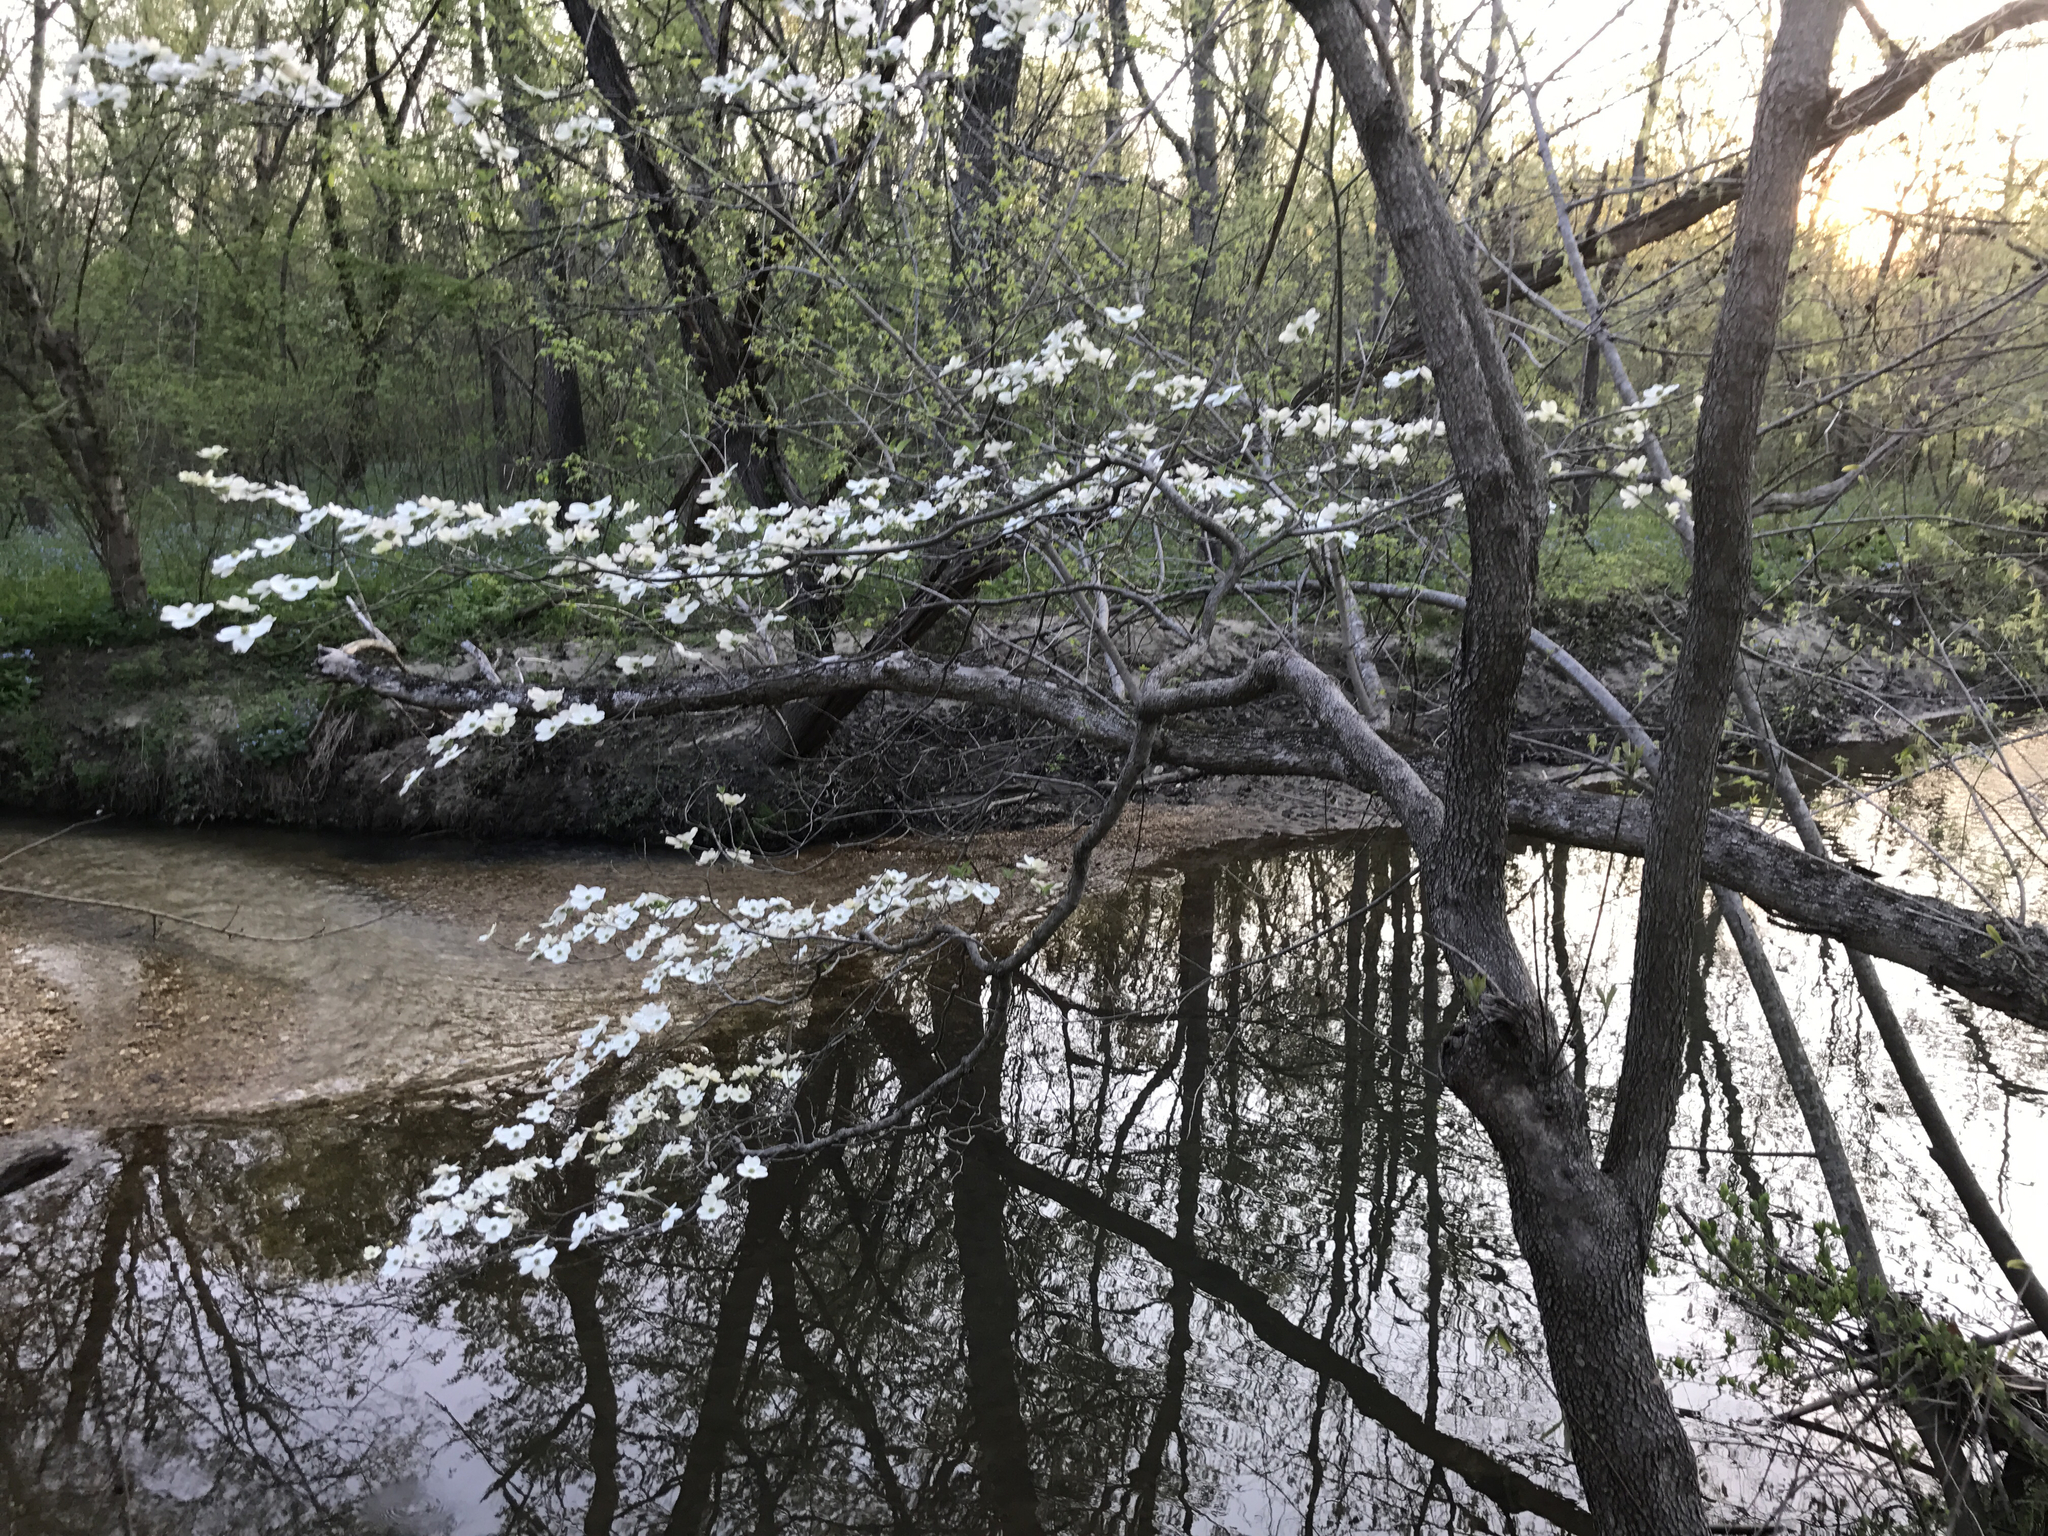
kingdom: Plantae
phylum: Tracheophyta
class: Magnoliopsida
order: Cornales
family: Cornaceae
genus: Cornus
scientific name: Cornus florida
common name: Flowering dogwood
